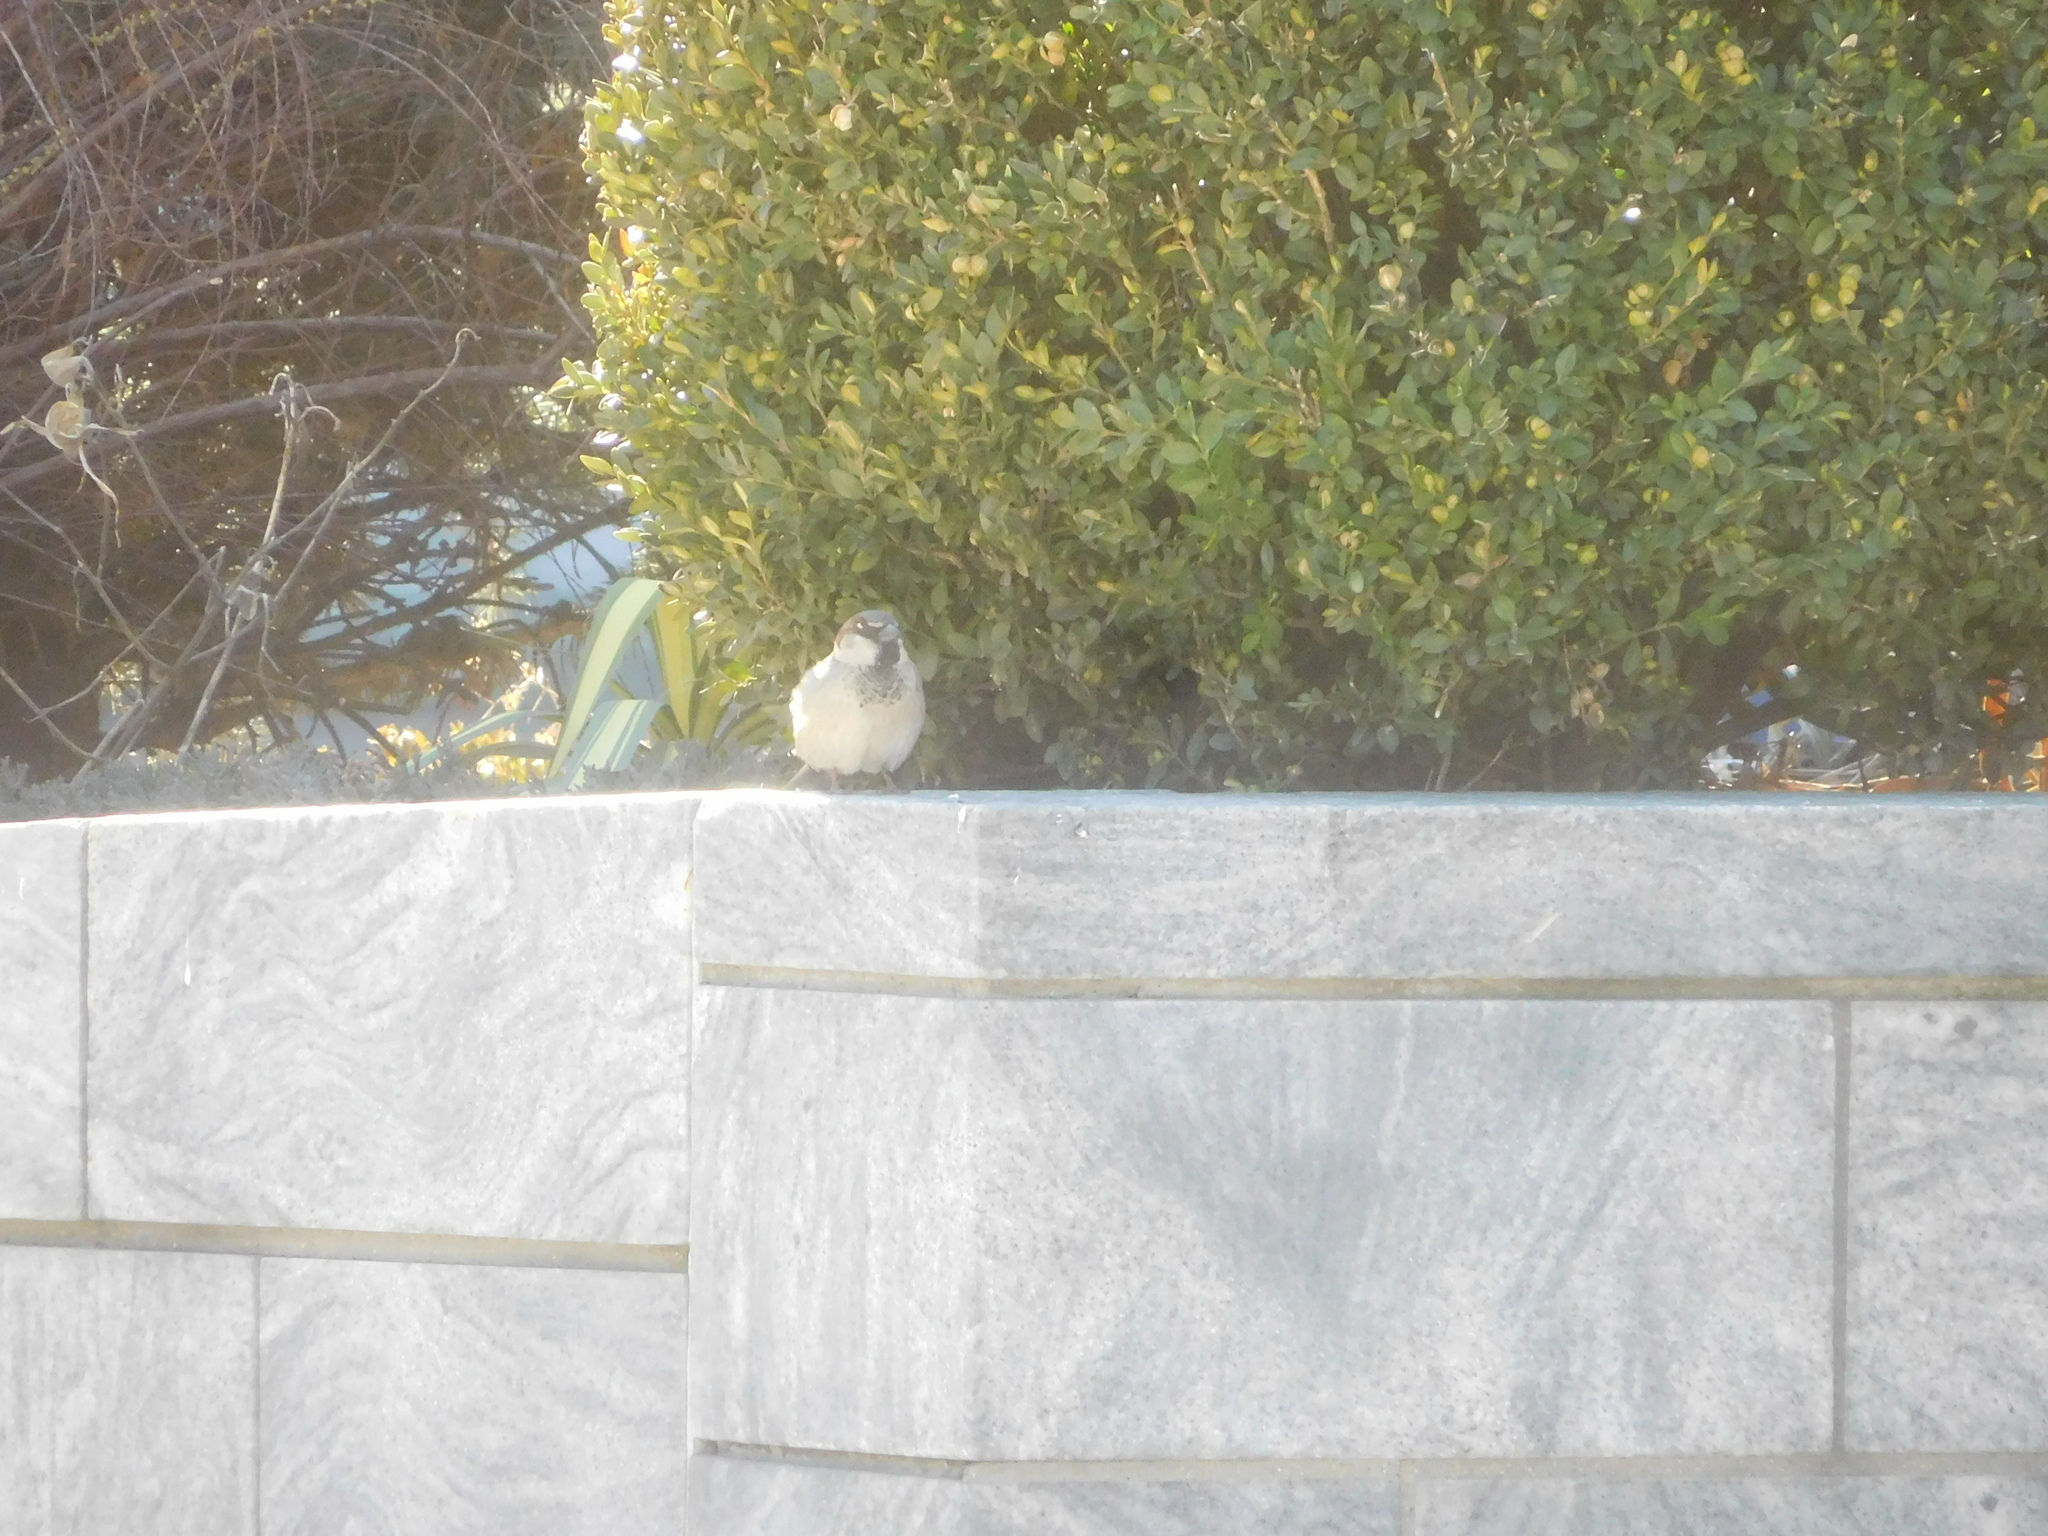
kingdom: Animalia
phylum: Chordata
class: Aves
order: Passeriformes
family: Passeridae
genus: Passer
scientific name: Passer domesticus
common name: House sparrow
